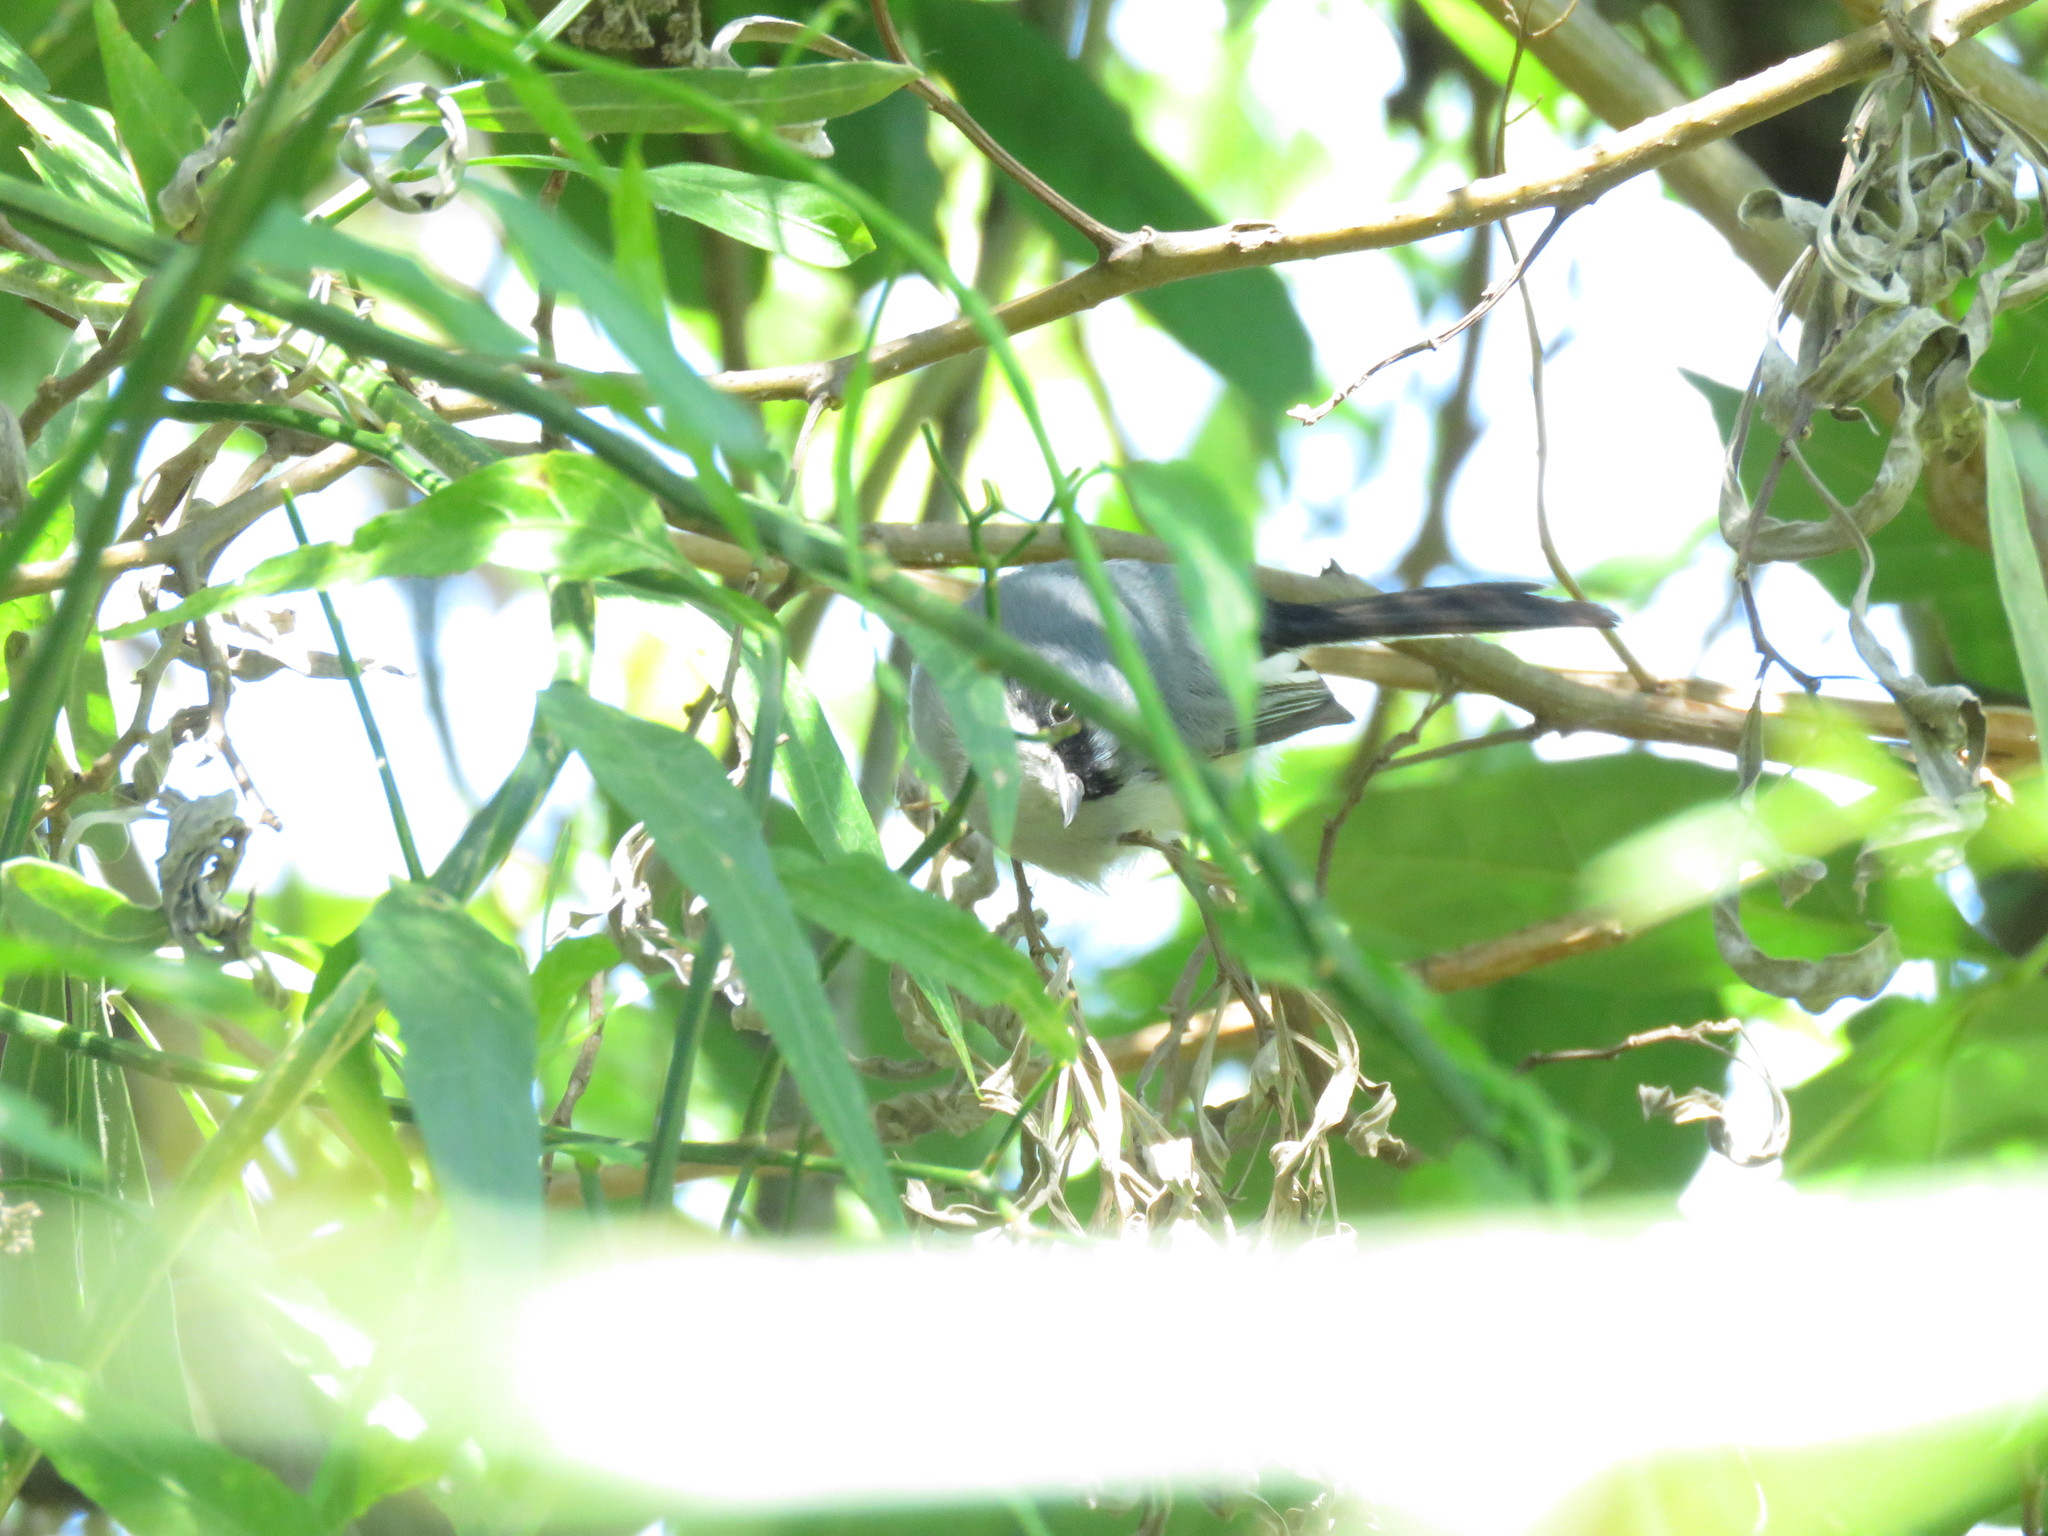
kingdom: Animalia
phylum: Chordata
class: Aves
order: Passeriformes
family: Polioptilidae
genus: Polioptila
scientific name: Polioptila dumicola
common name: Masked gnatcatcher
